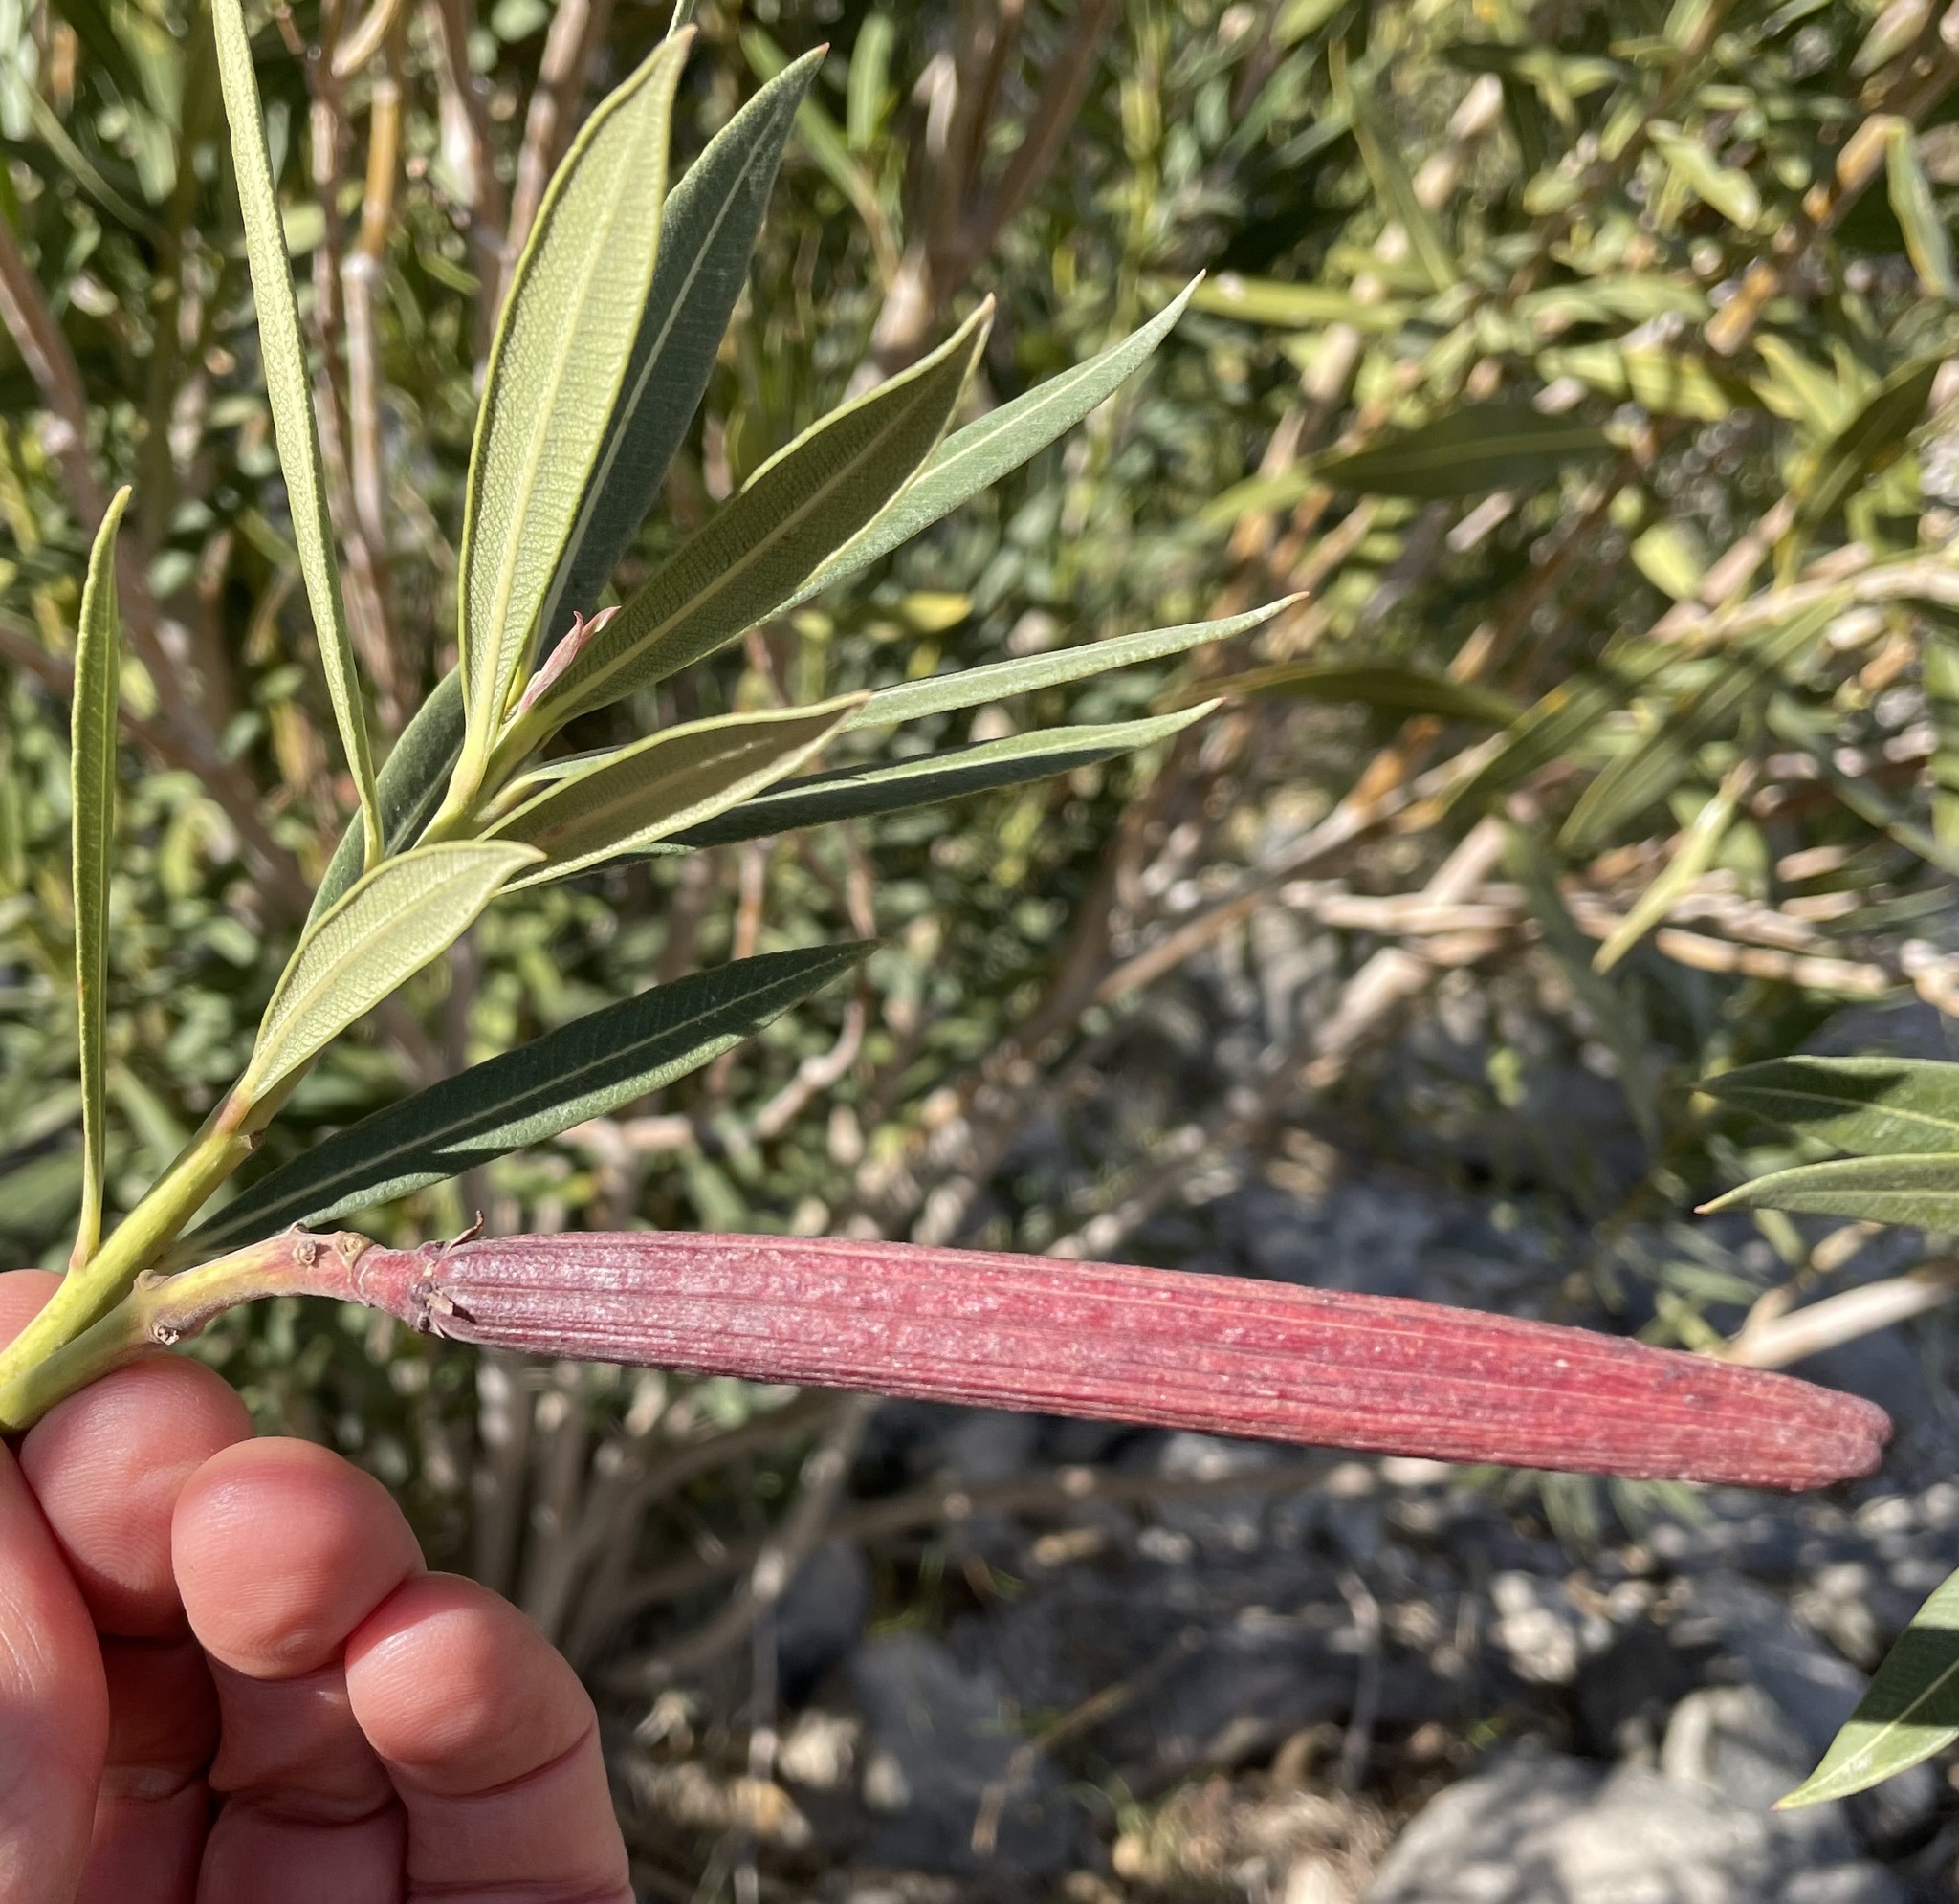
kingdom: Plantae
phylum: Tracheophyta
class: Magnoliopsida
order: Gentianales
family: Apocynaceae
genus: Nerium
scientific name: Nerium oleander
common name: Oleander
